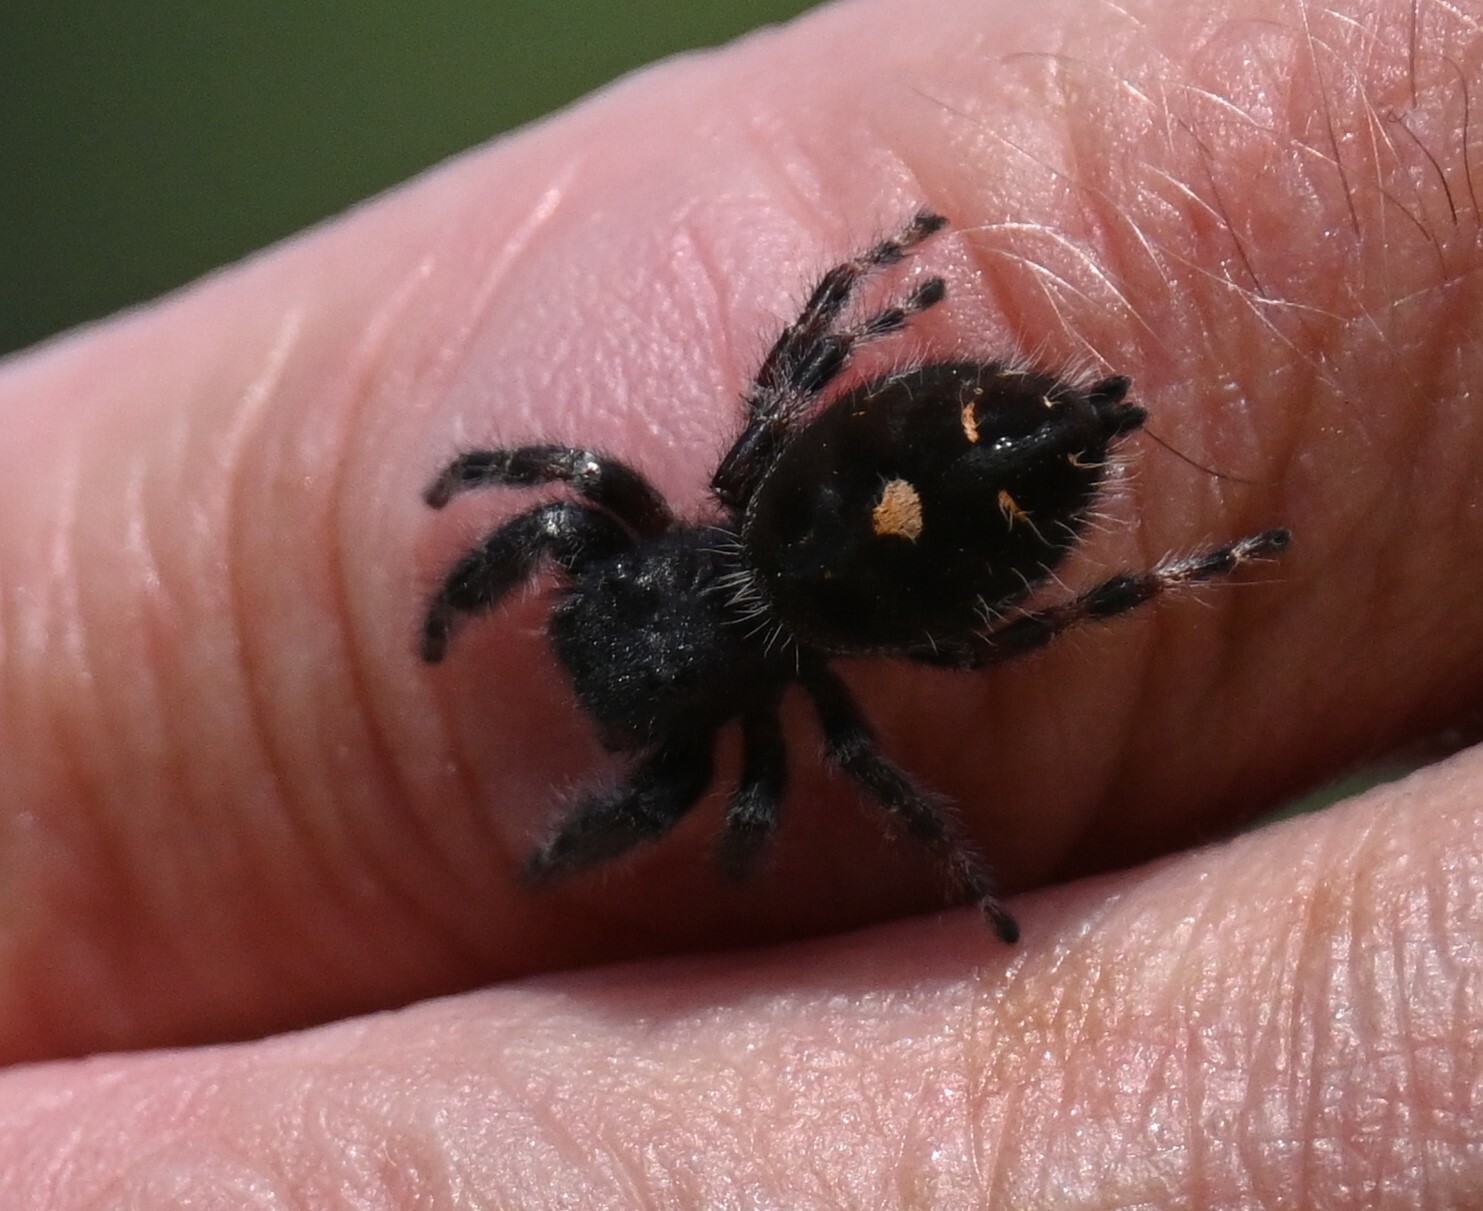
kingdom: Animalia
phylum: Arthropoda
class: Arachnida
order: Araneae
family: Salticidae
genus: Phidippus
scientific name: Phidippus audax
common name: Bold jumper
